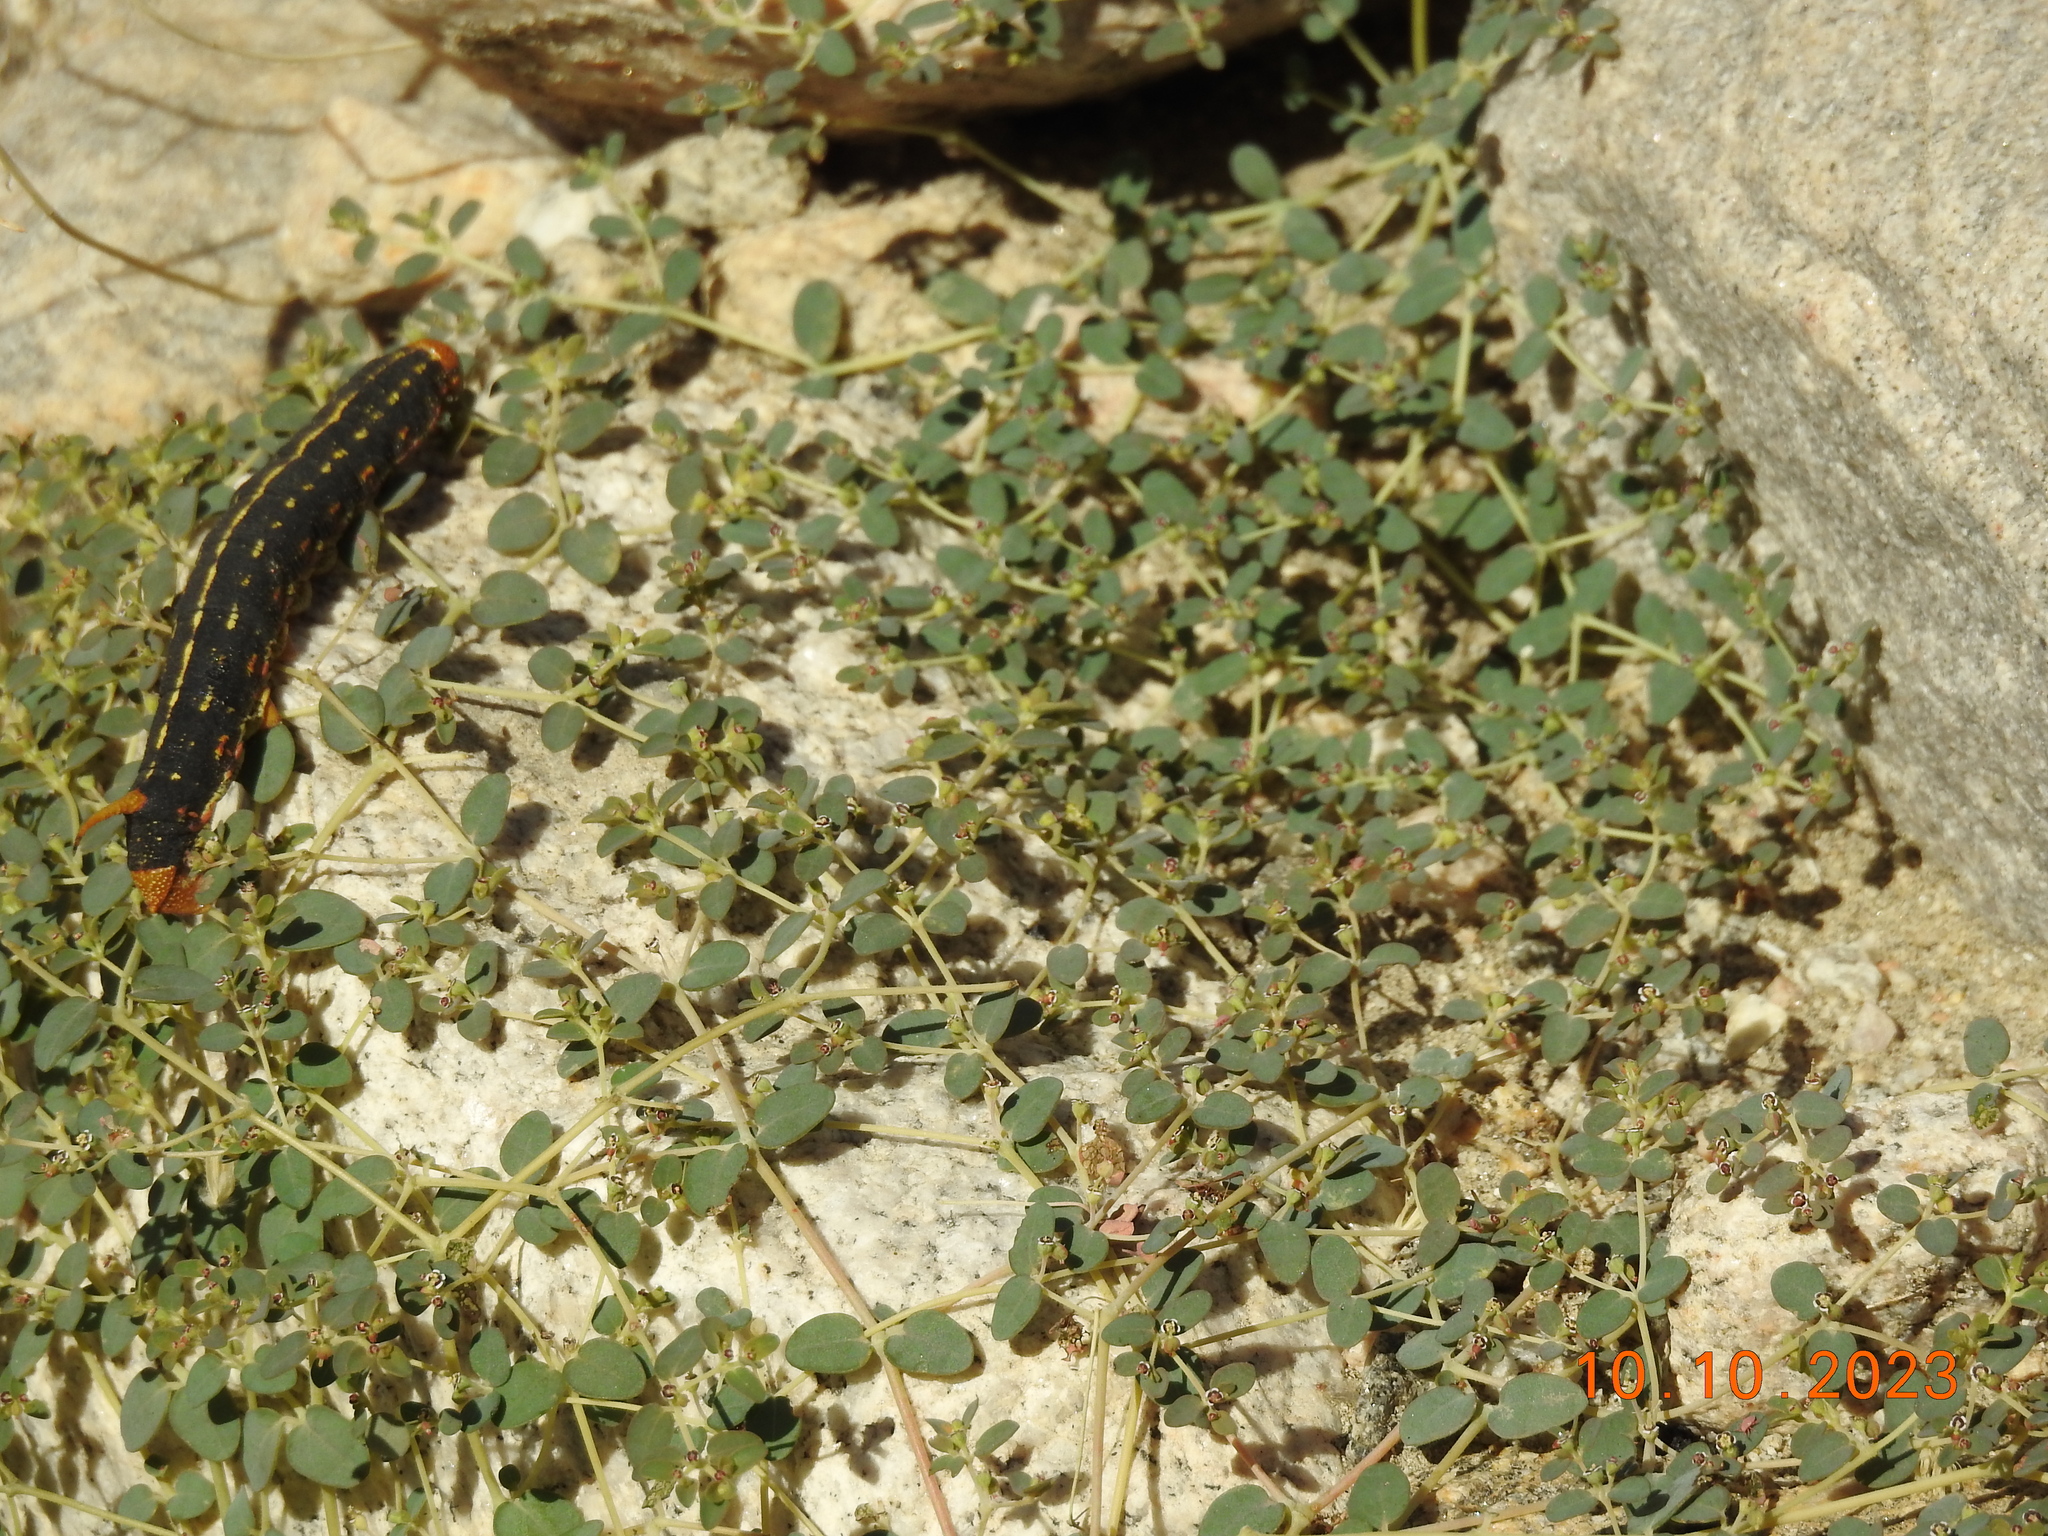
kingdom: Plantae
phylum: Tracheophyta
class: Magnoliopsida
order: Malpighiales
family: Euphorbiaceae
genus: Euphorbia
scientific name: Euphorbia polycarpa
